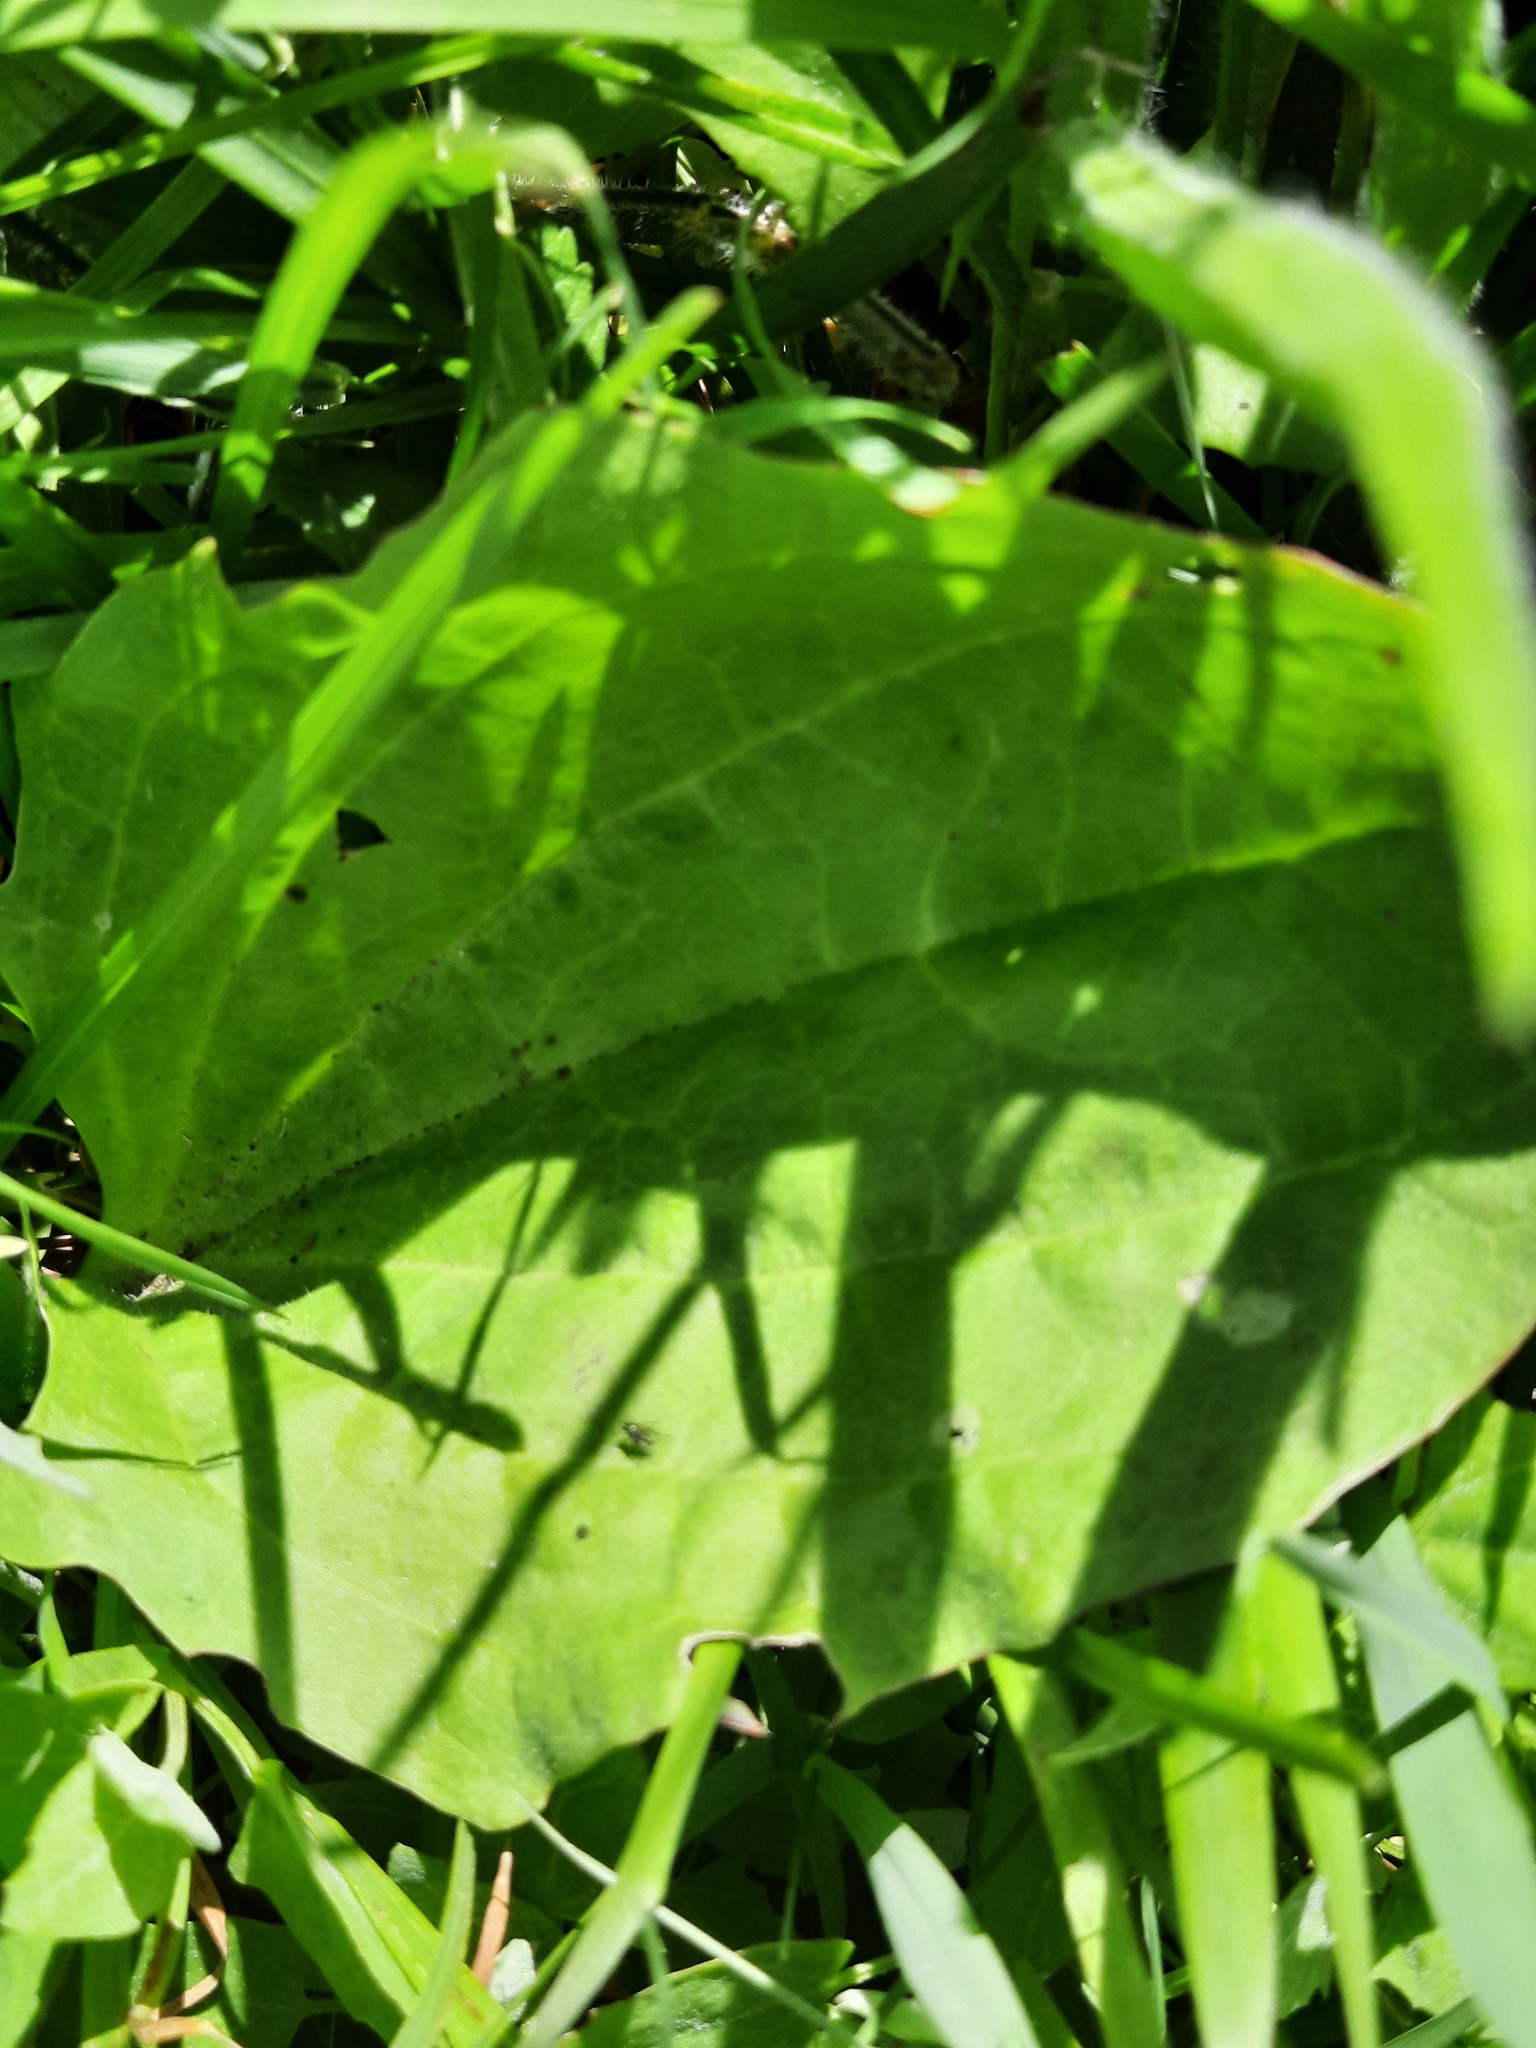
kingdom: Plantae
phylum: Tracheophyta
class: Magnoliopsida
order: Lamiales
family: Plantaginaceae
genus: Plantago
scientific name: Plantago major
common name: Common plantain
